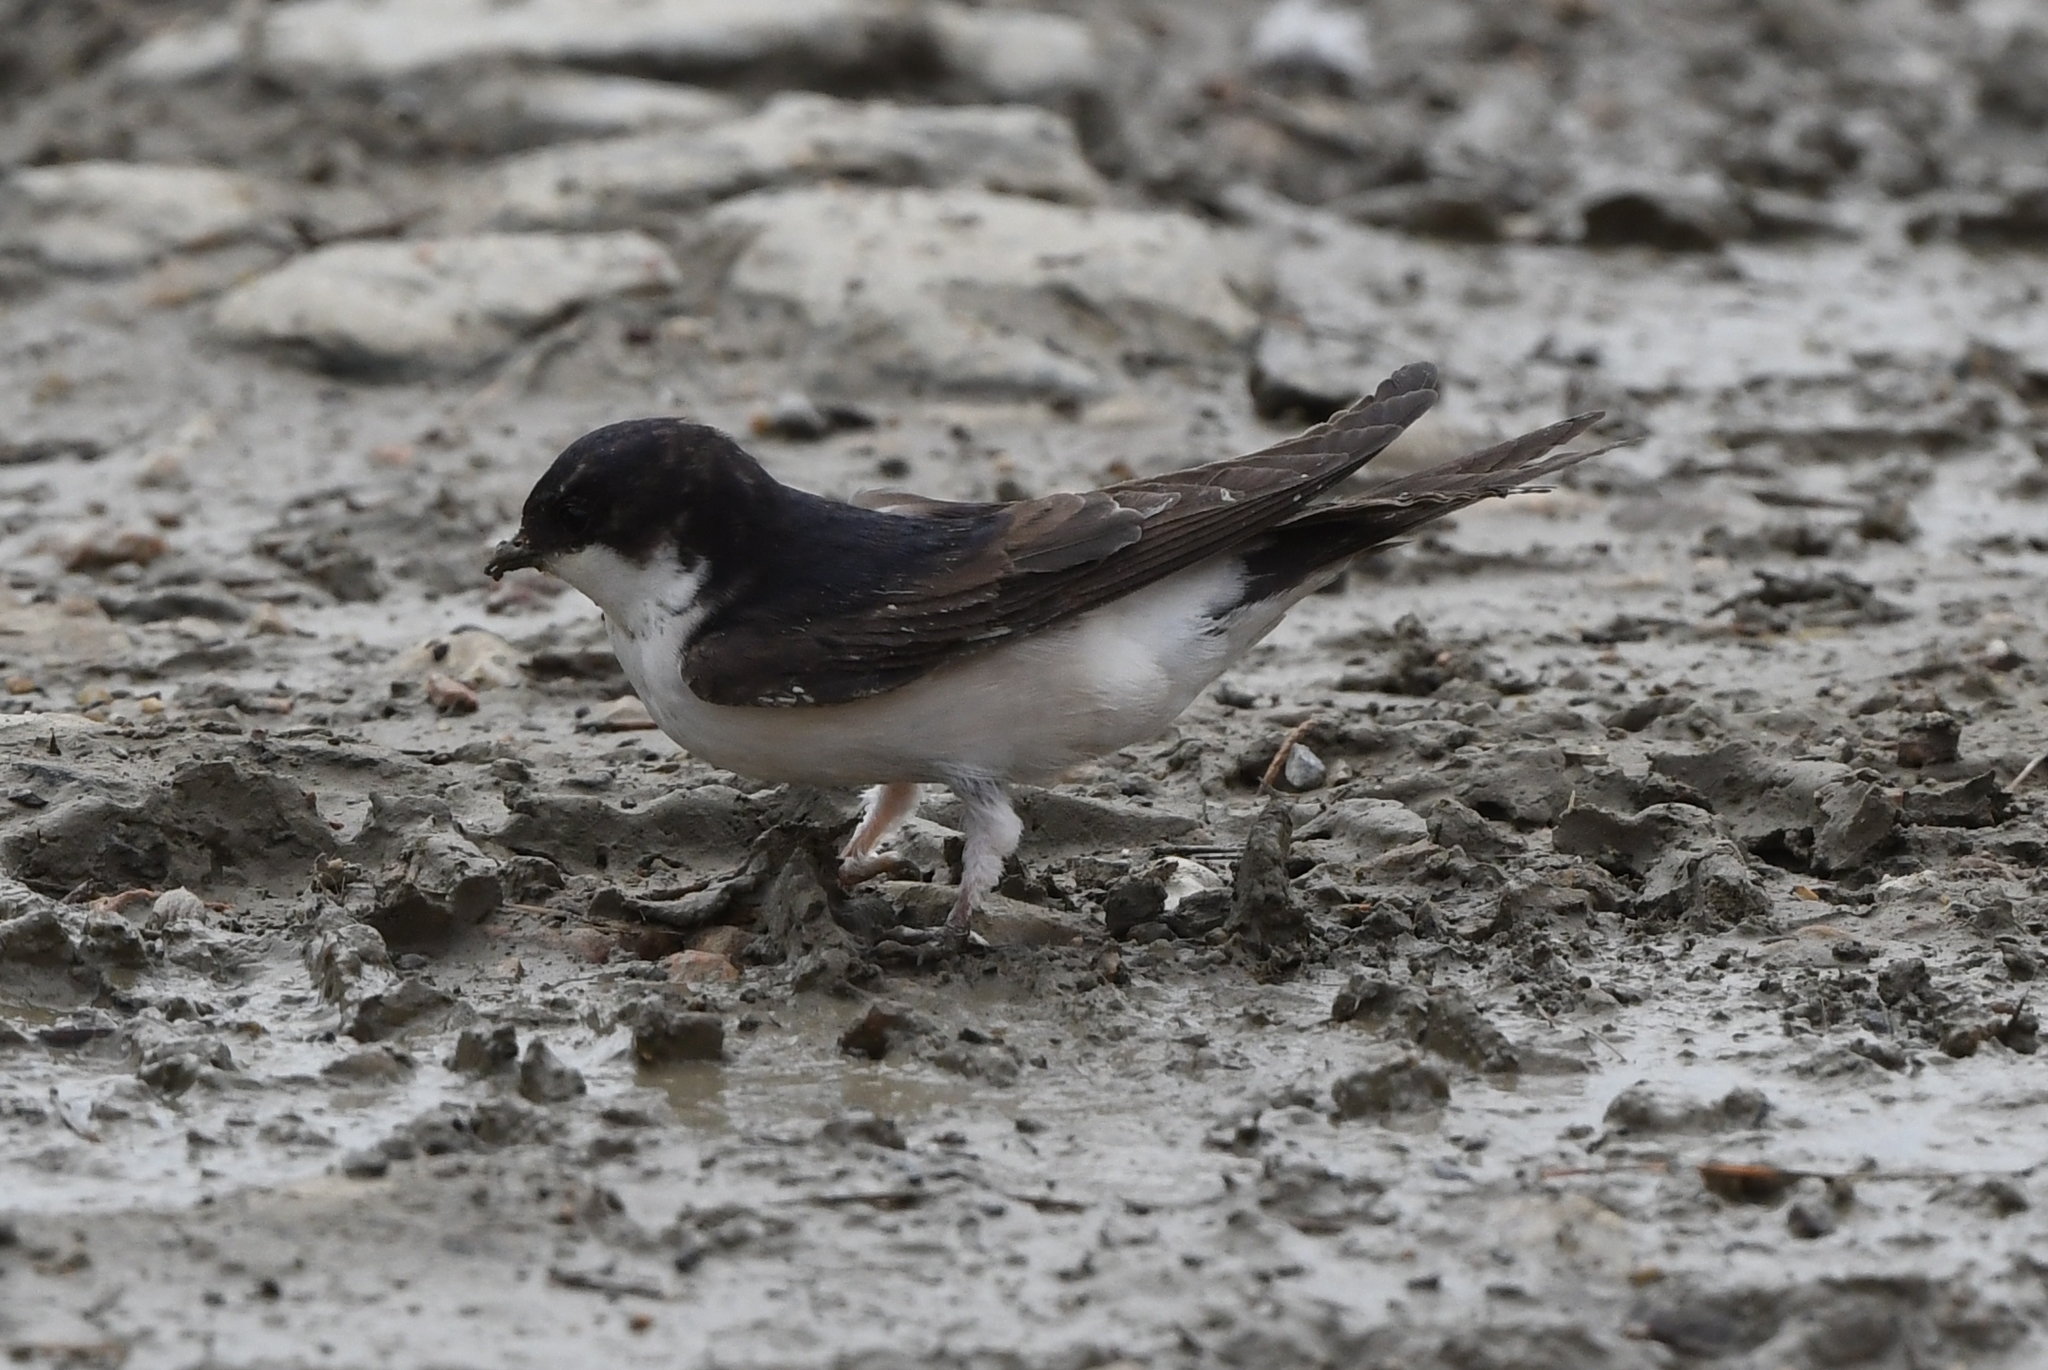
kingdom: Animalia
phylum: Chordata
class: Aves
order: Passeriformes
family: Hirundinidae
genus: Delichon
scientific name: Delichon urbicum
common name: Common house martin
